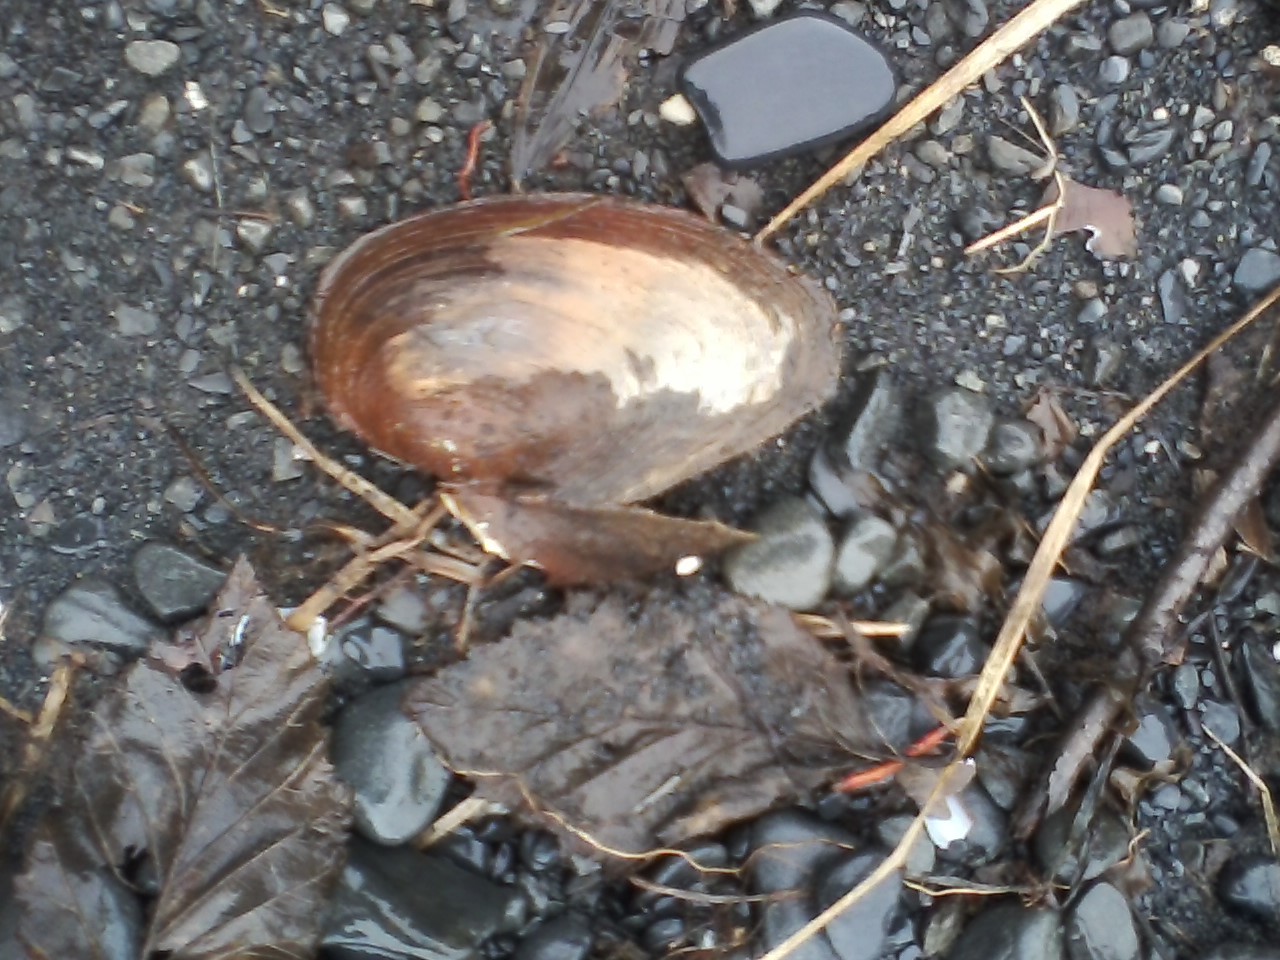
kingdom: Animalia
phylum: Mollusca
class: Bivalvia
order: Unionida
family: Unionidae
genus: Beringiana
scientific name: Beringiana beringiana
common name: Yukon floater
